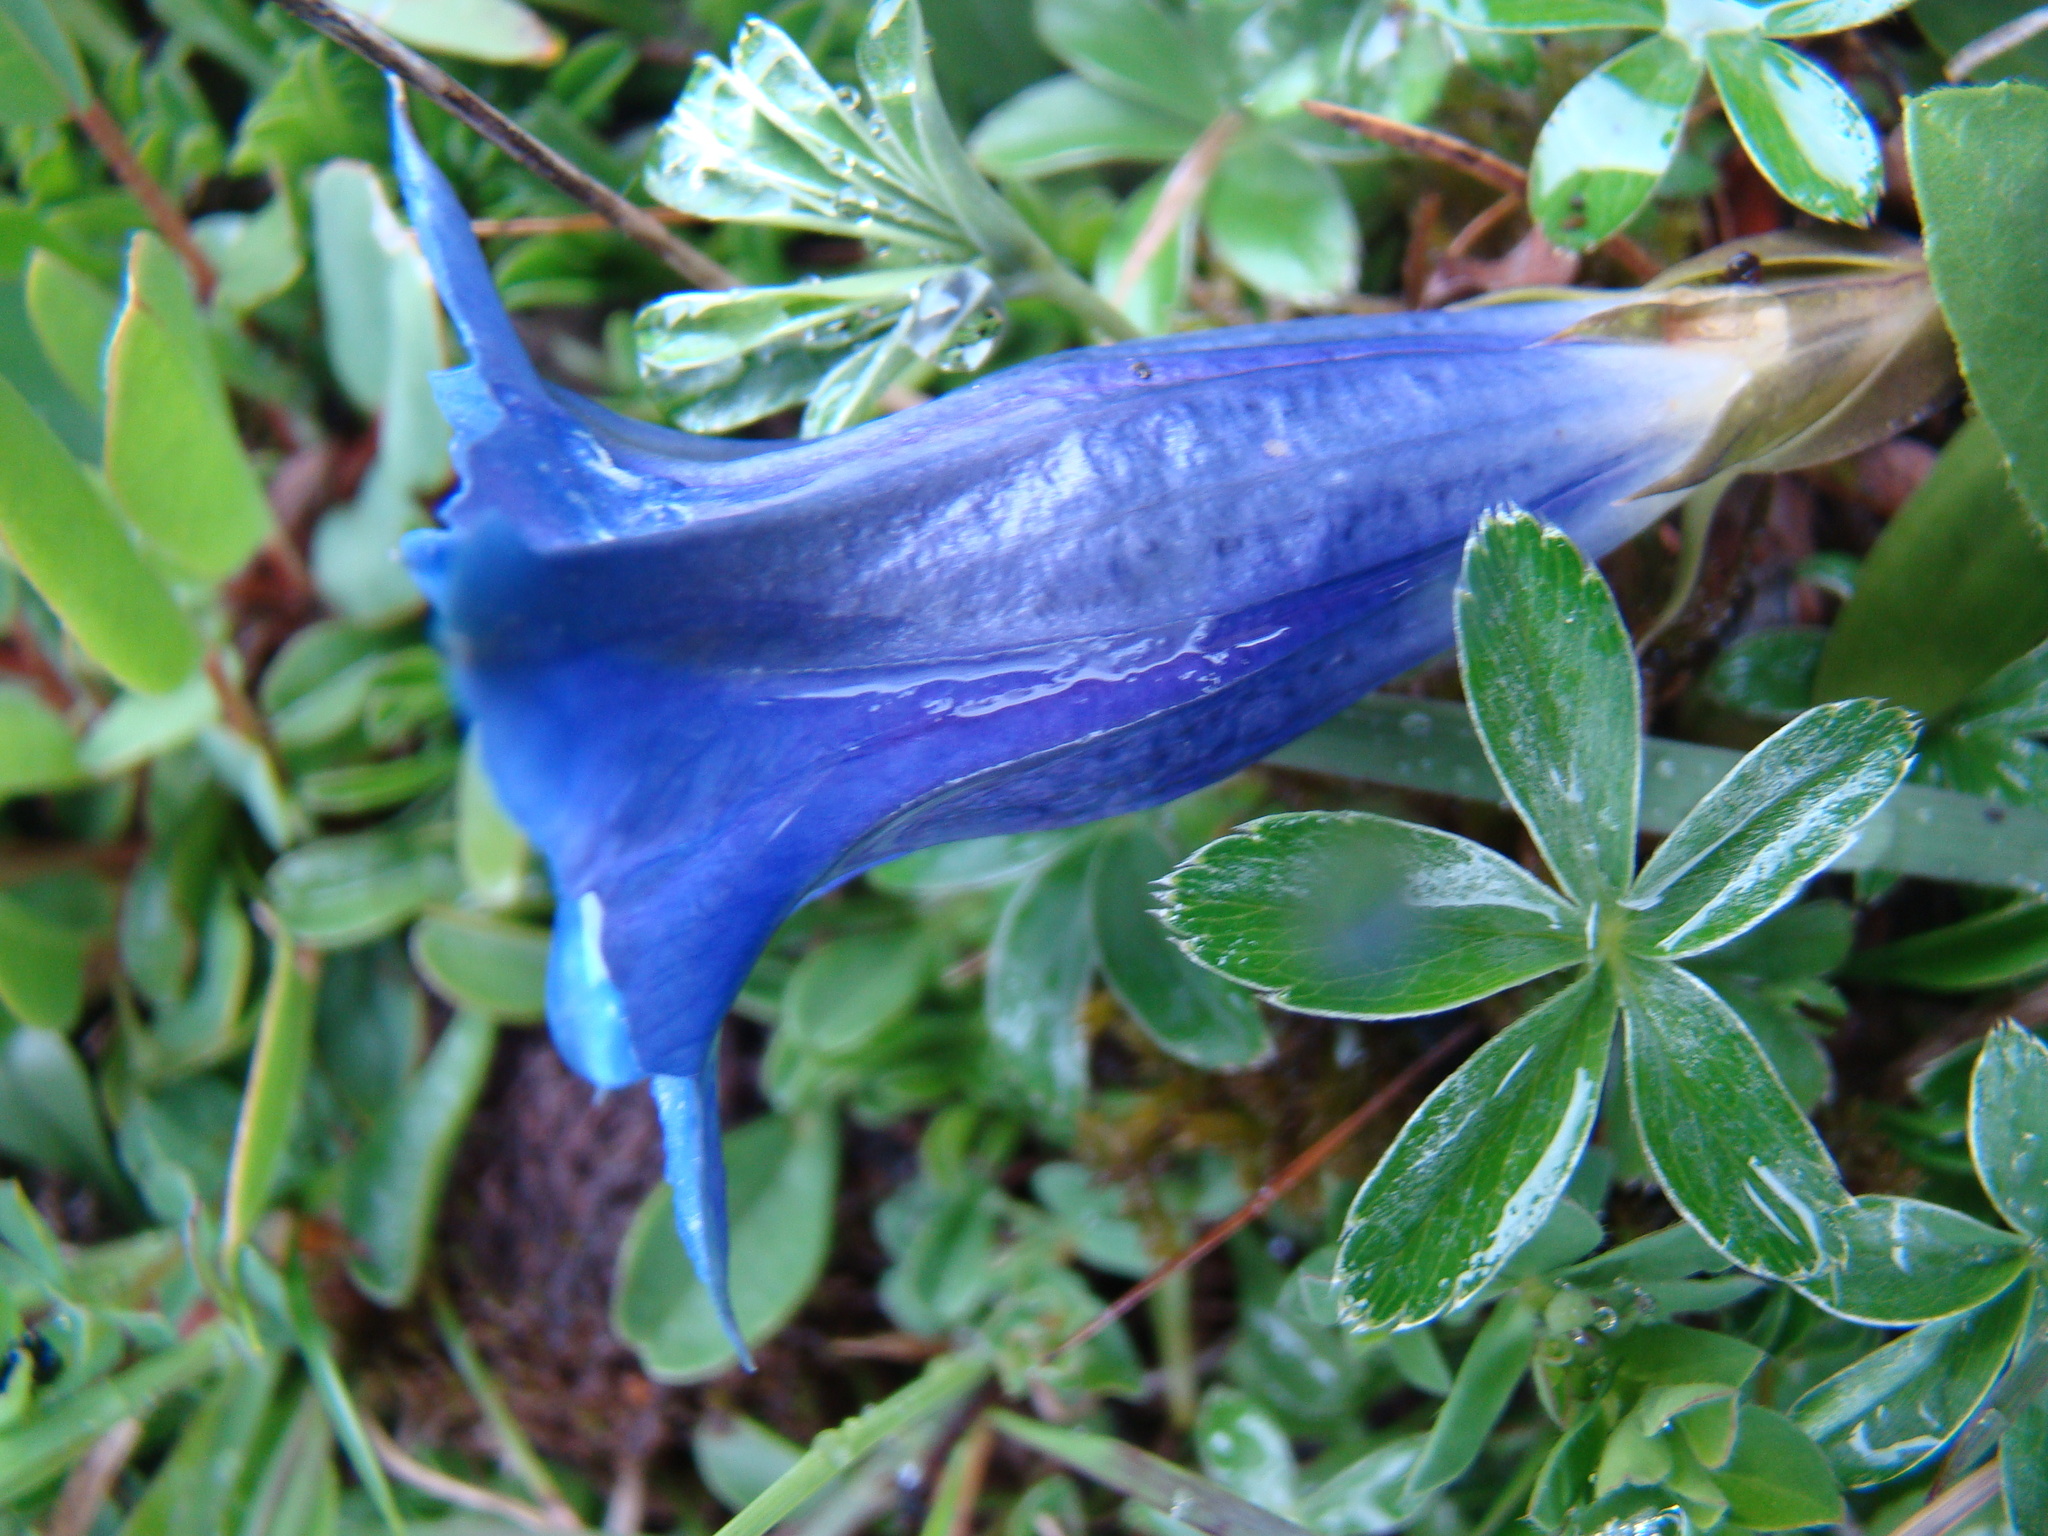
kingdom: Plantae
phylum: Tracheophyta
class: Magnoliopsida
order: Gentianales
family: Gentianaceae
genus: Gentiana
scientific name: Gentiana clusii
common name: Trumpet gentian
